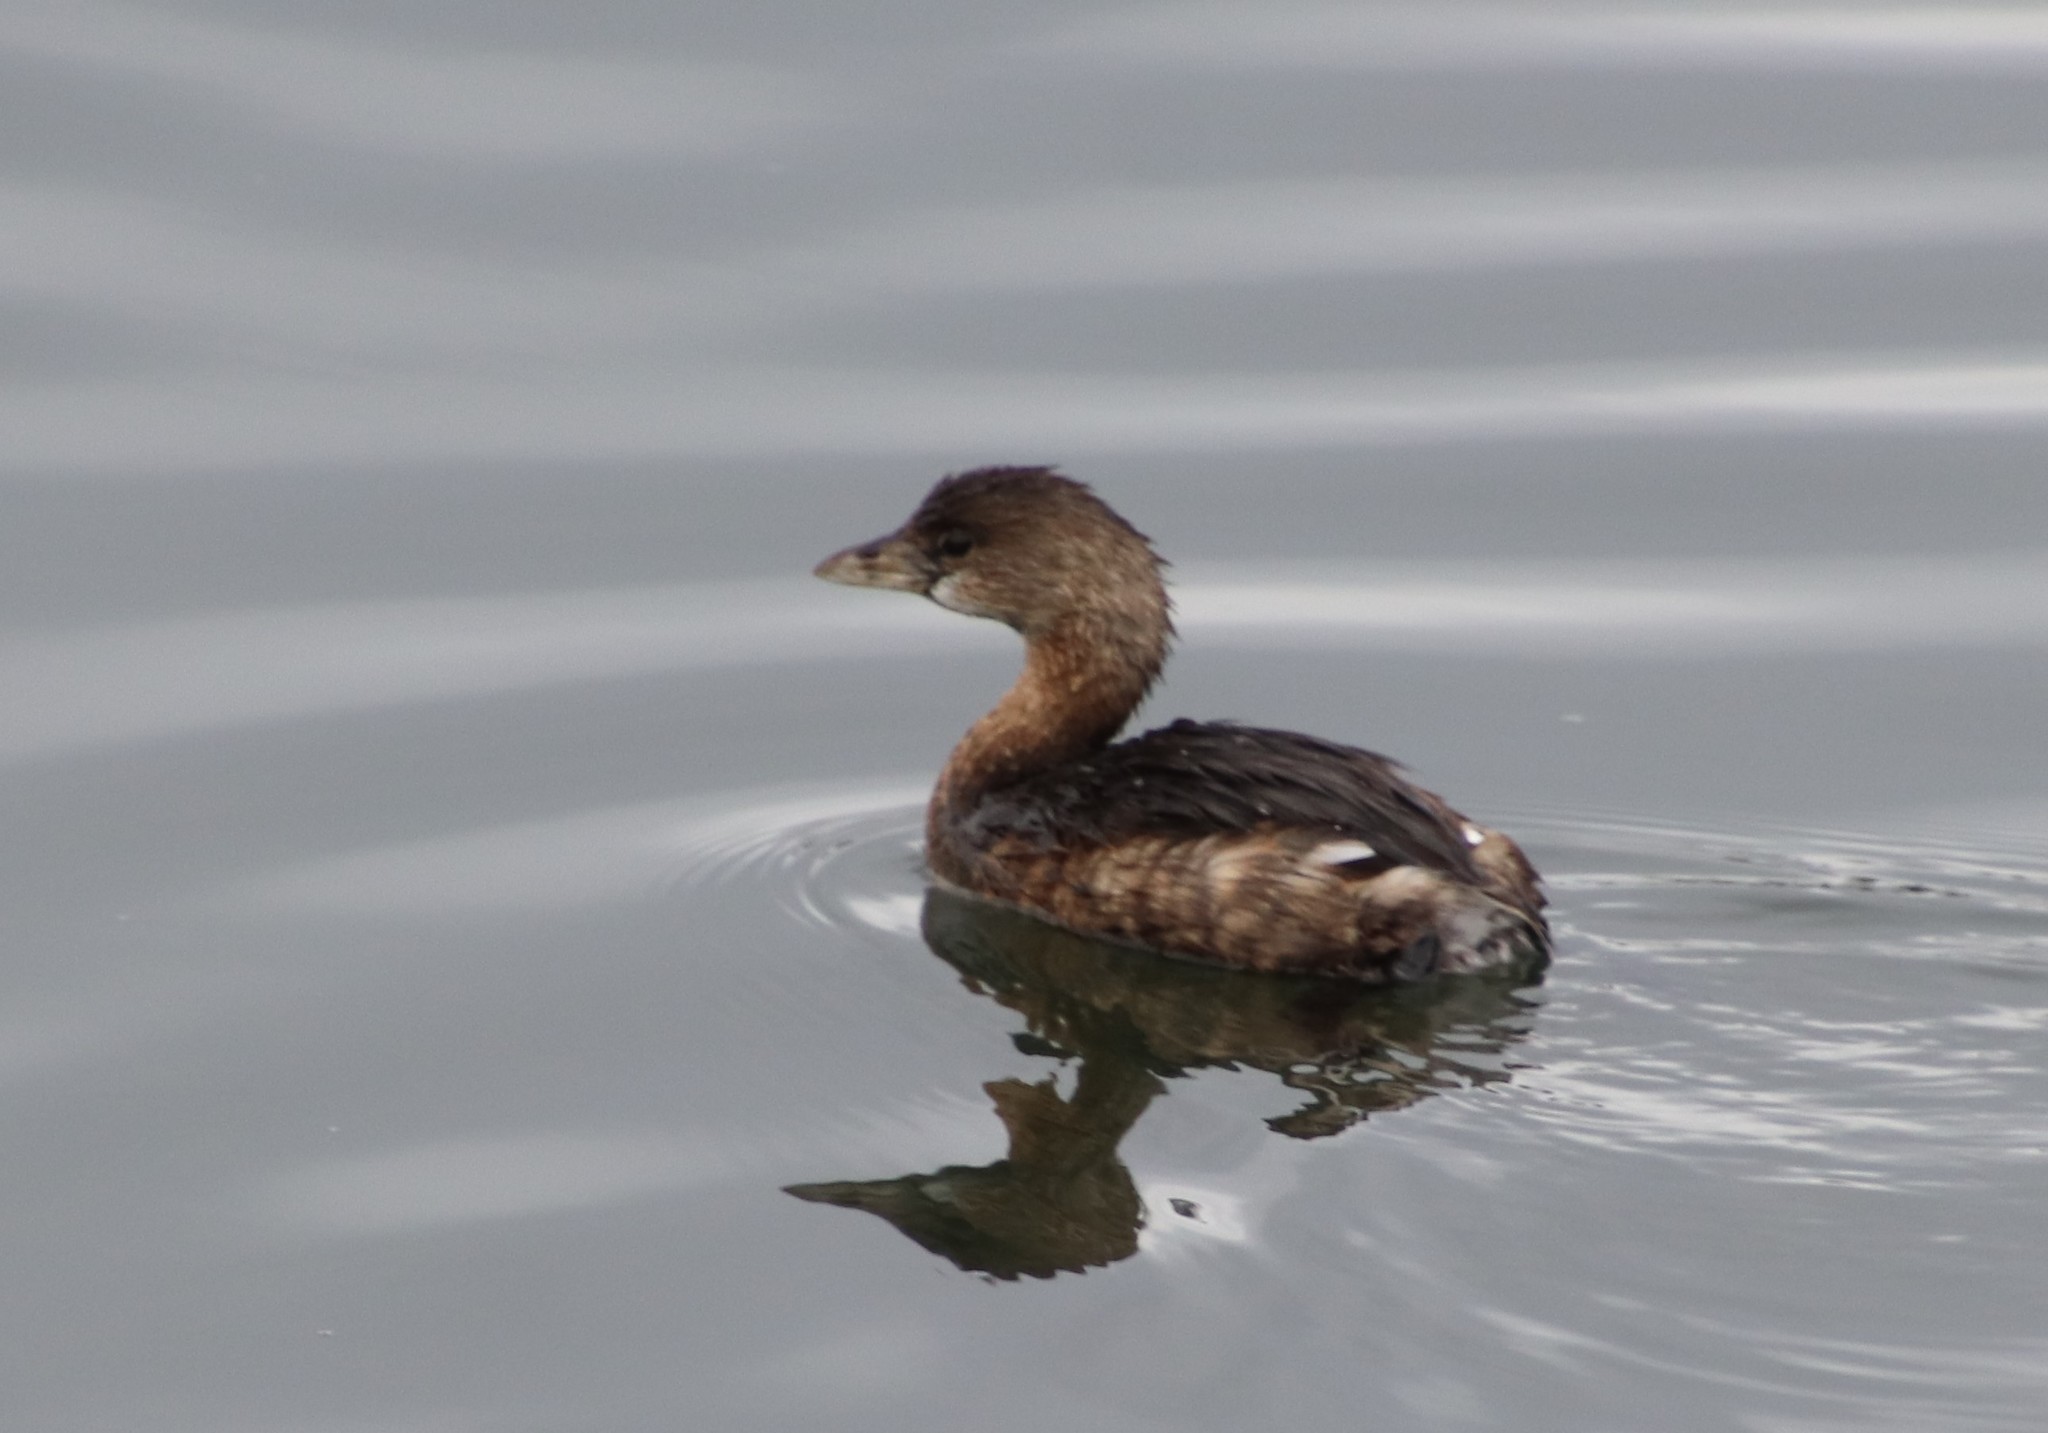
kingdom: Animalia
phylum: Chordata
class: Aves
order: Podicipediformes
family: Podicipedidae
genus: Podilymbus
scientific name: Podilymbus podiceps
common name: Pied-billed grebe
